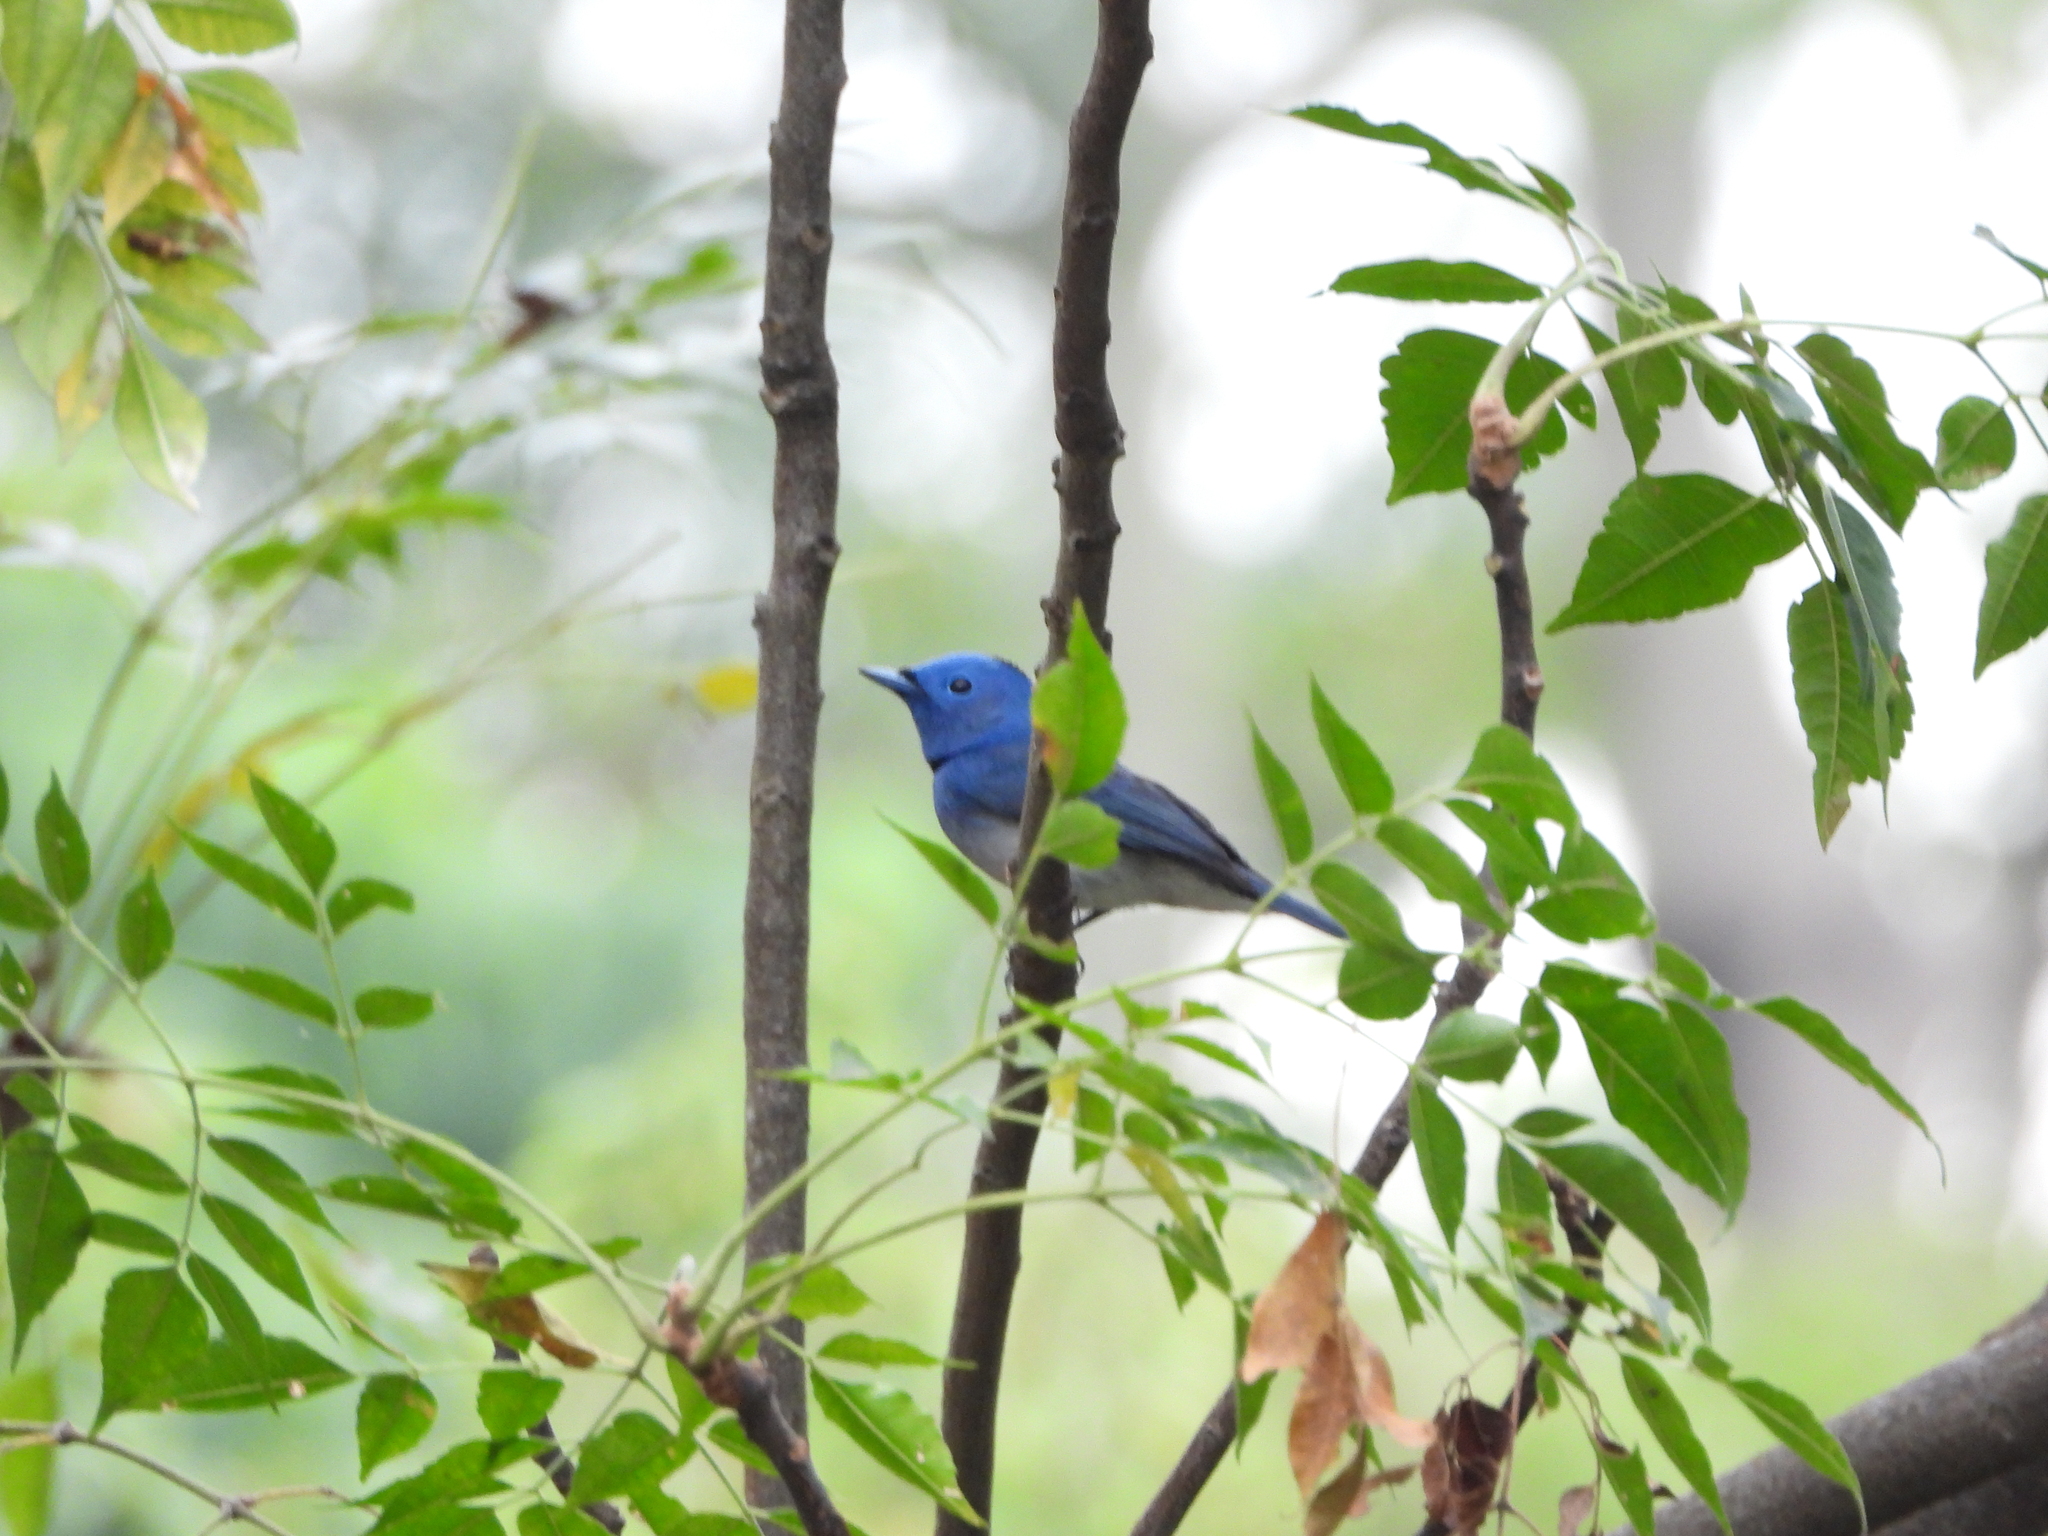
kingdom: Animalia
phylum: Chordata
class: Aves
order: Passeriformes
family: Monarchidae
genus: Hypothymis
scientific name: Hypothymis azurea
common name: Black-naped monarch
